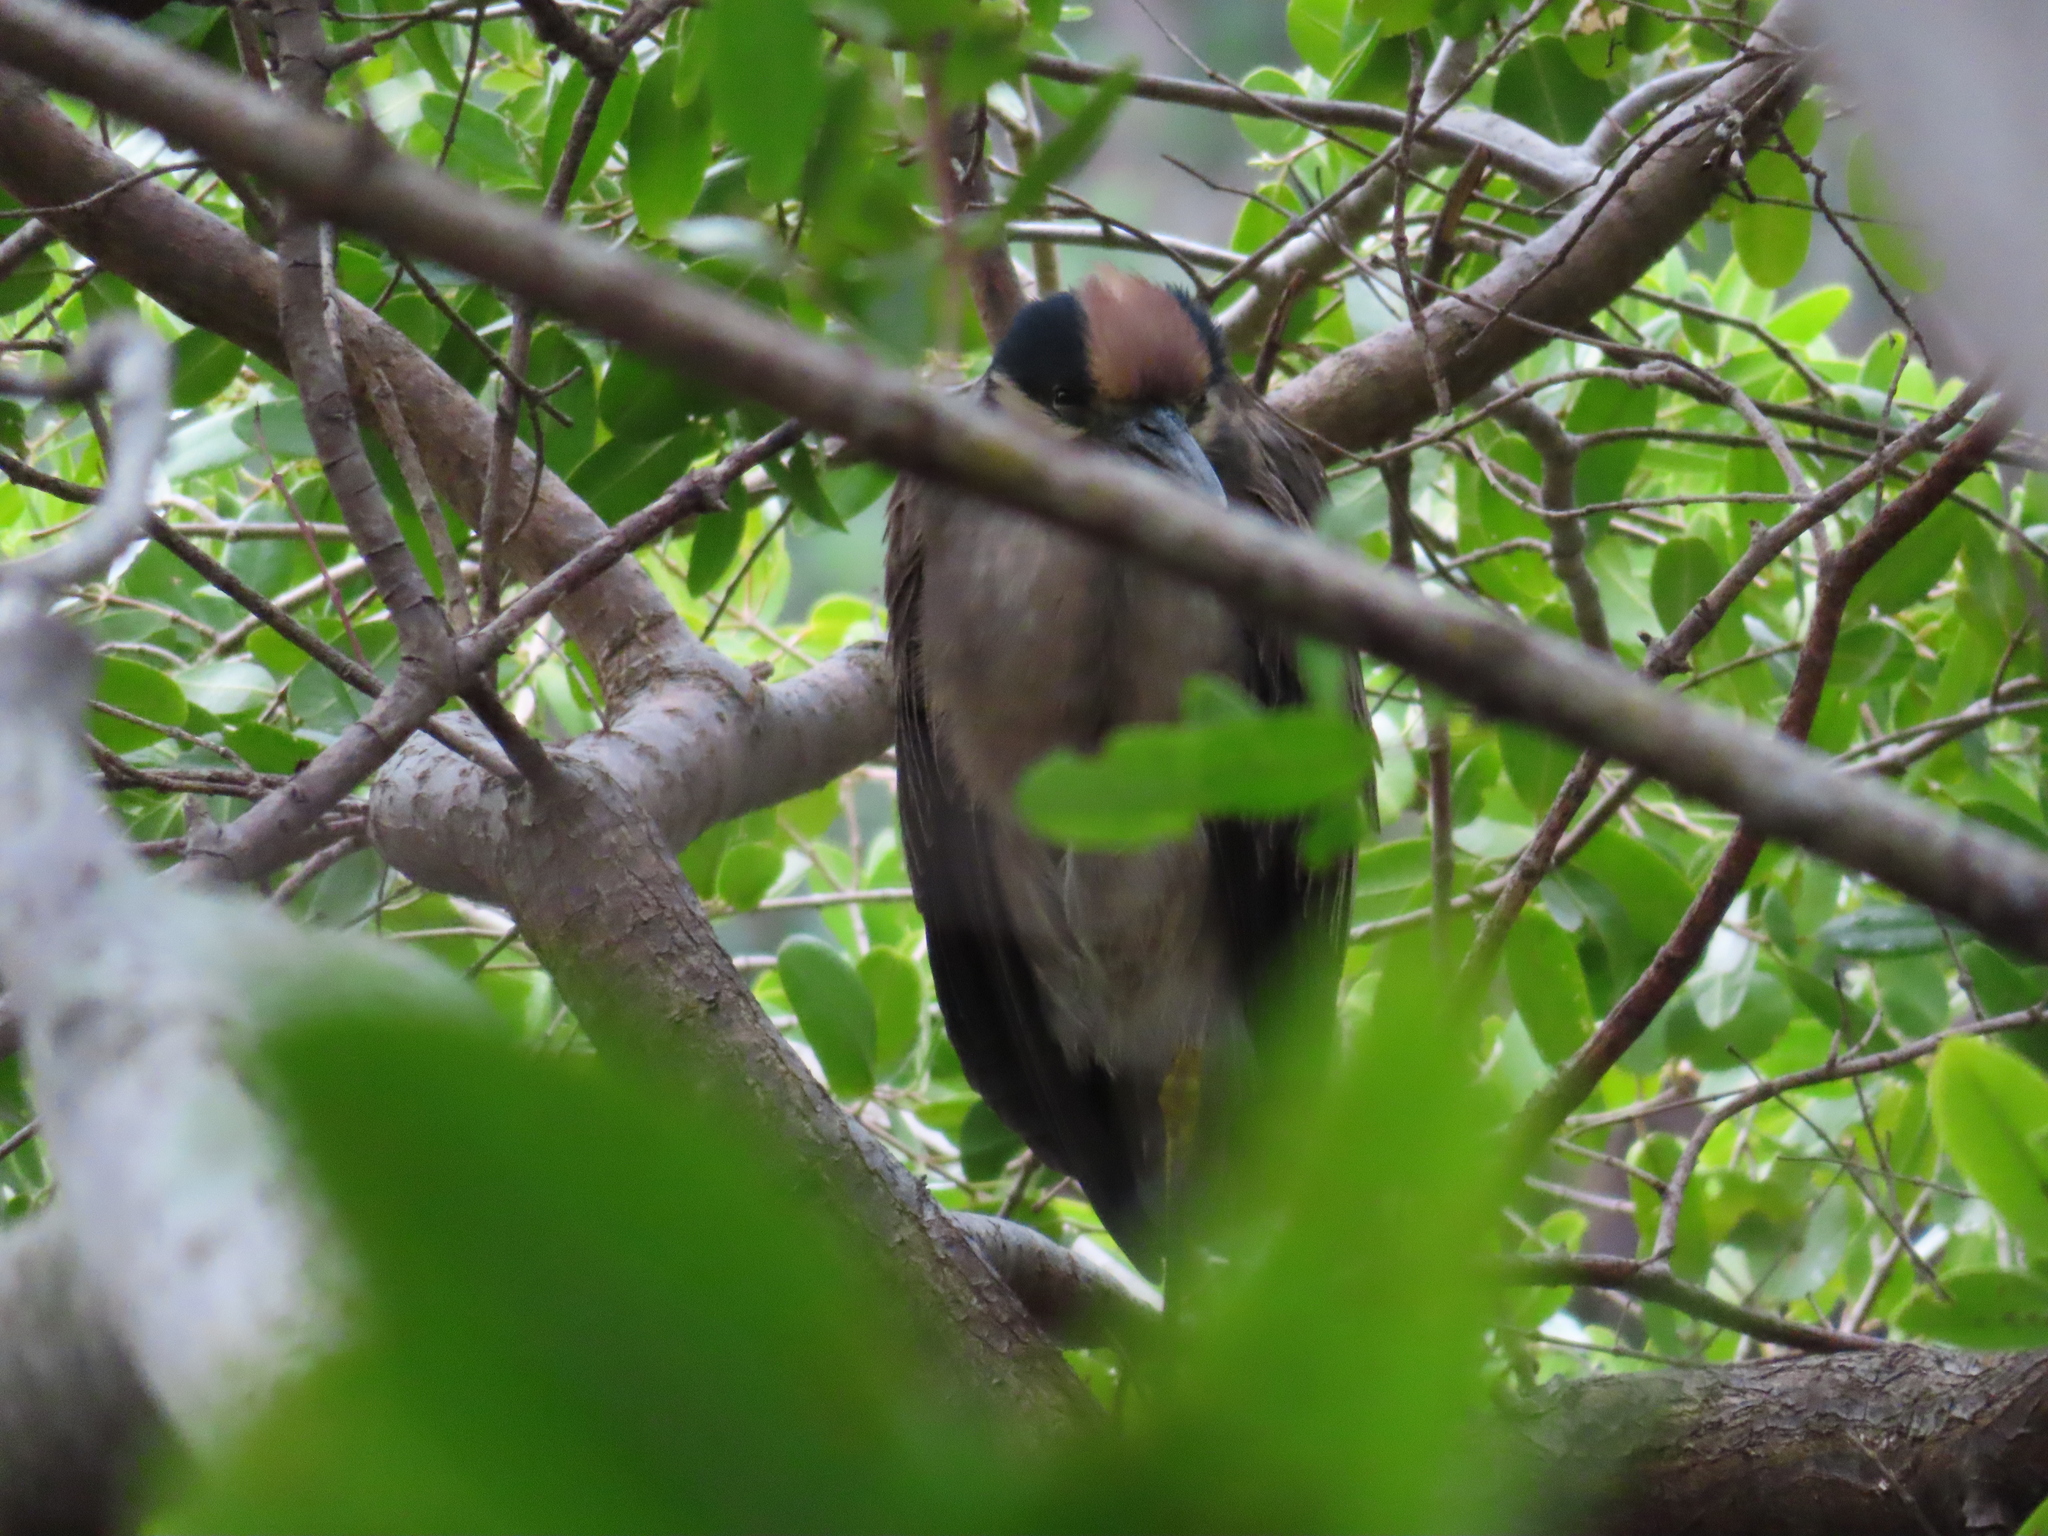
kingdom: Animalia
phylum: Chordata
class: Aves
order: Pelecaniformes
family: Ardeidae
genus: Nyctanassa
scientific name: Nyctanassa violacea
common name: Yellow-crowned night heron
